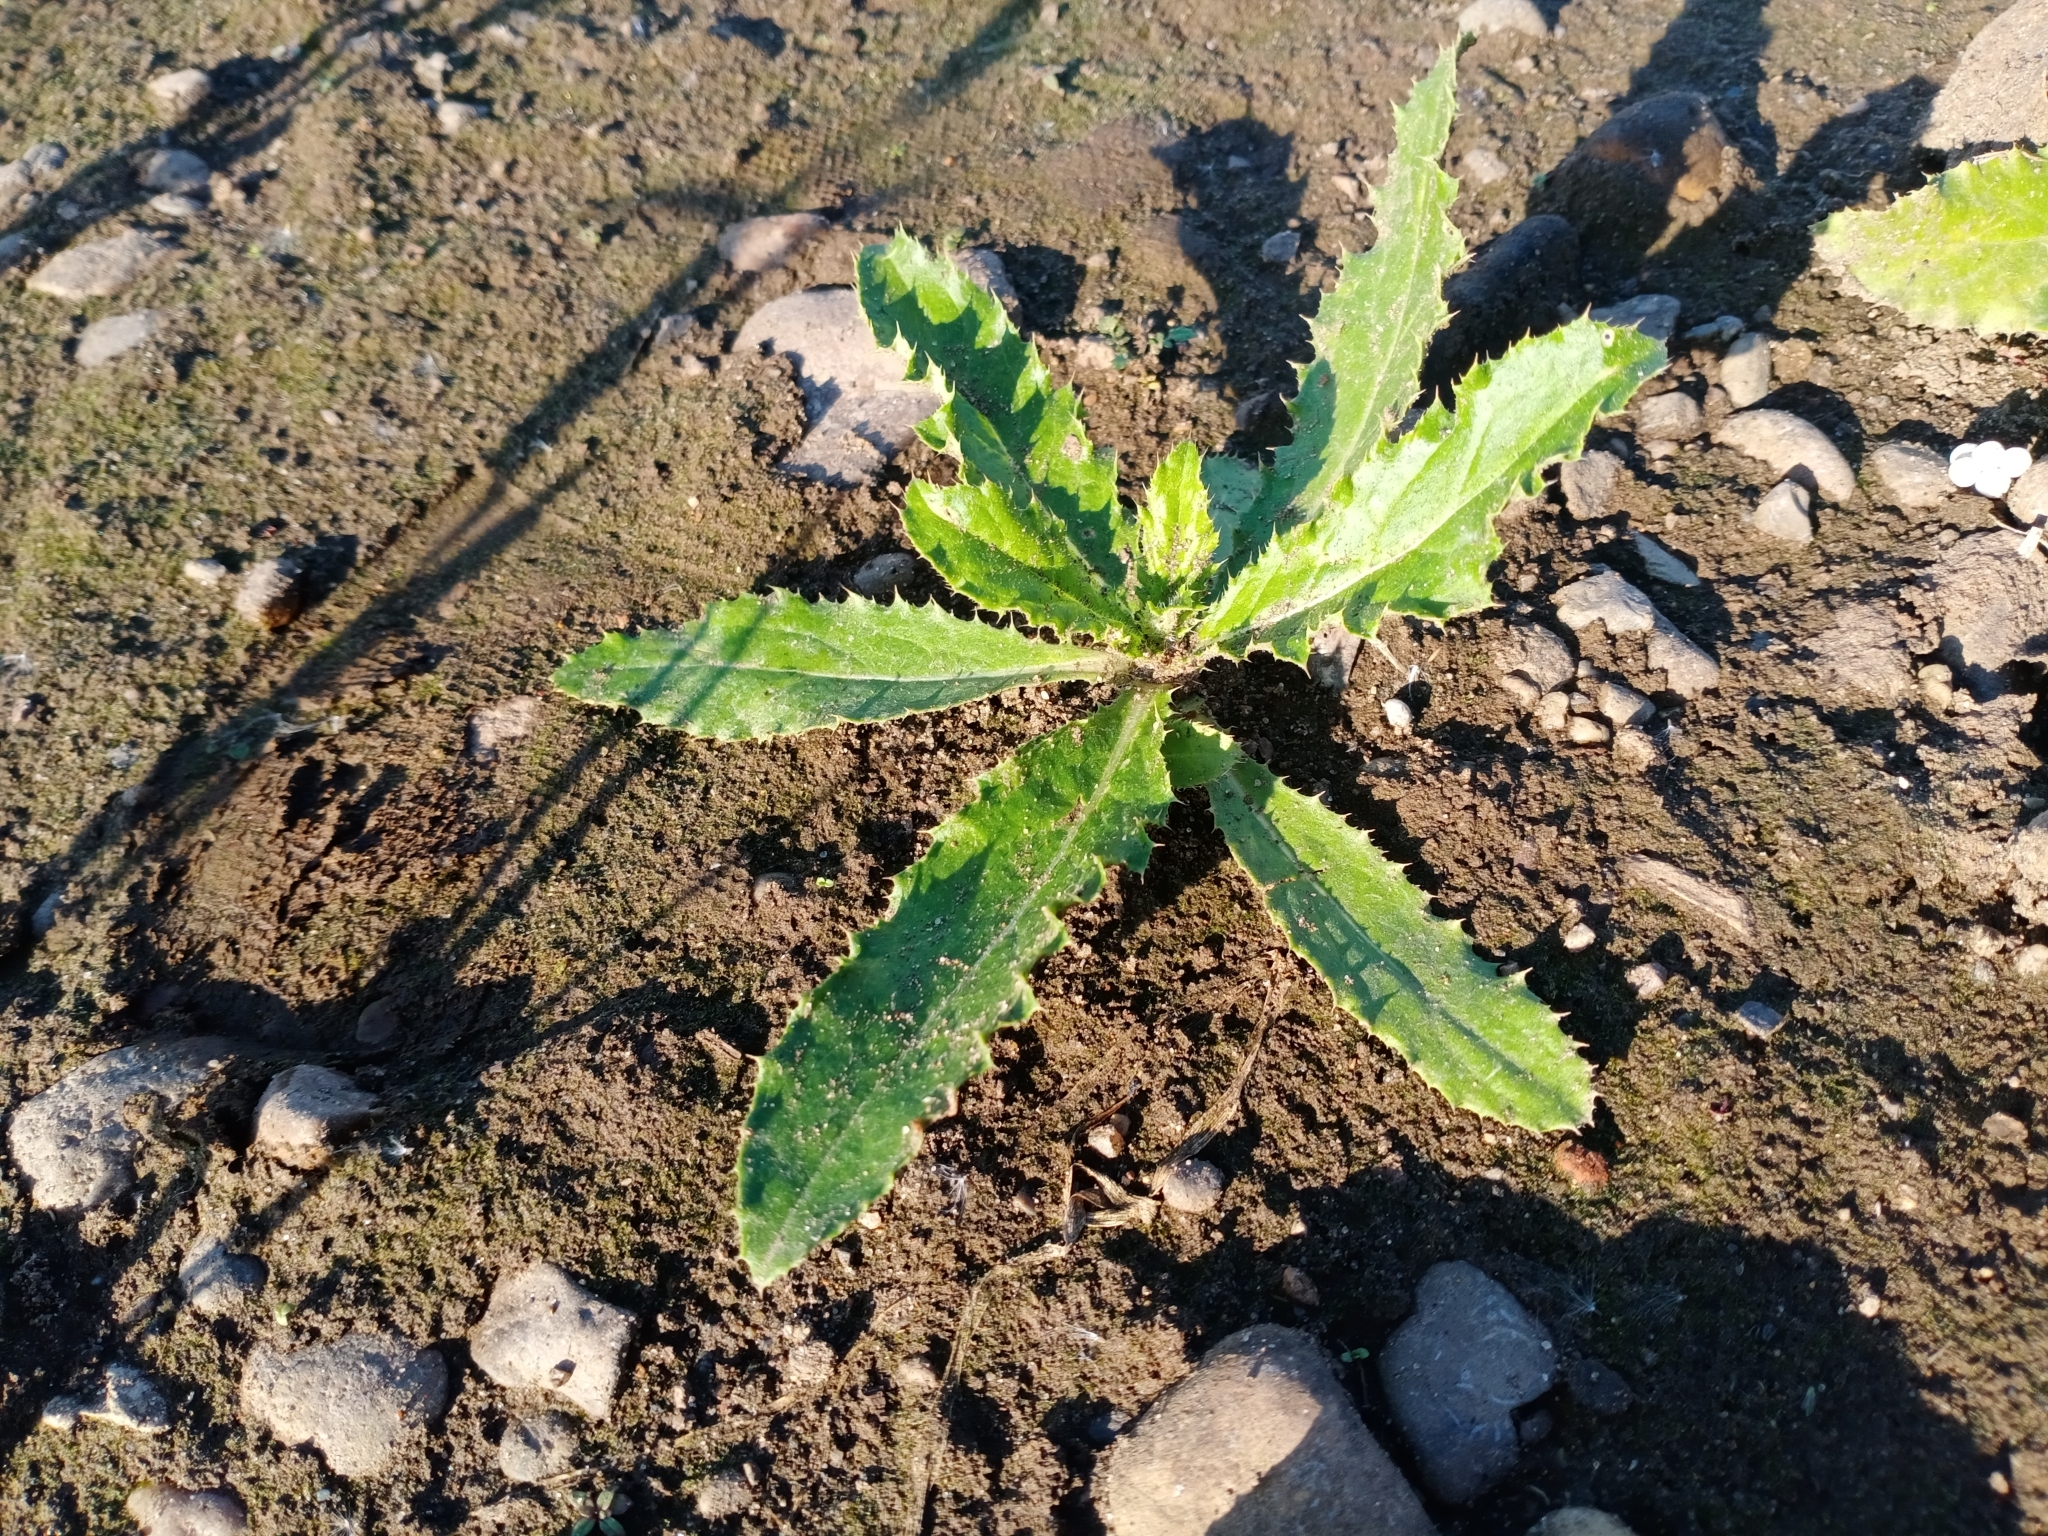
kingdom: Plantae
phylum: Tracheophyta
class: Magnoliopsida
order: Asterales
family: Asteraceae
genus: Cirsium
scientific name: Cirsium arvense
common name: Creeping thistle
